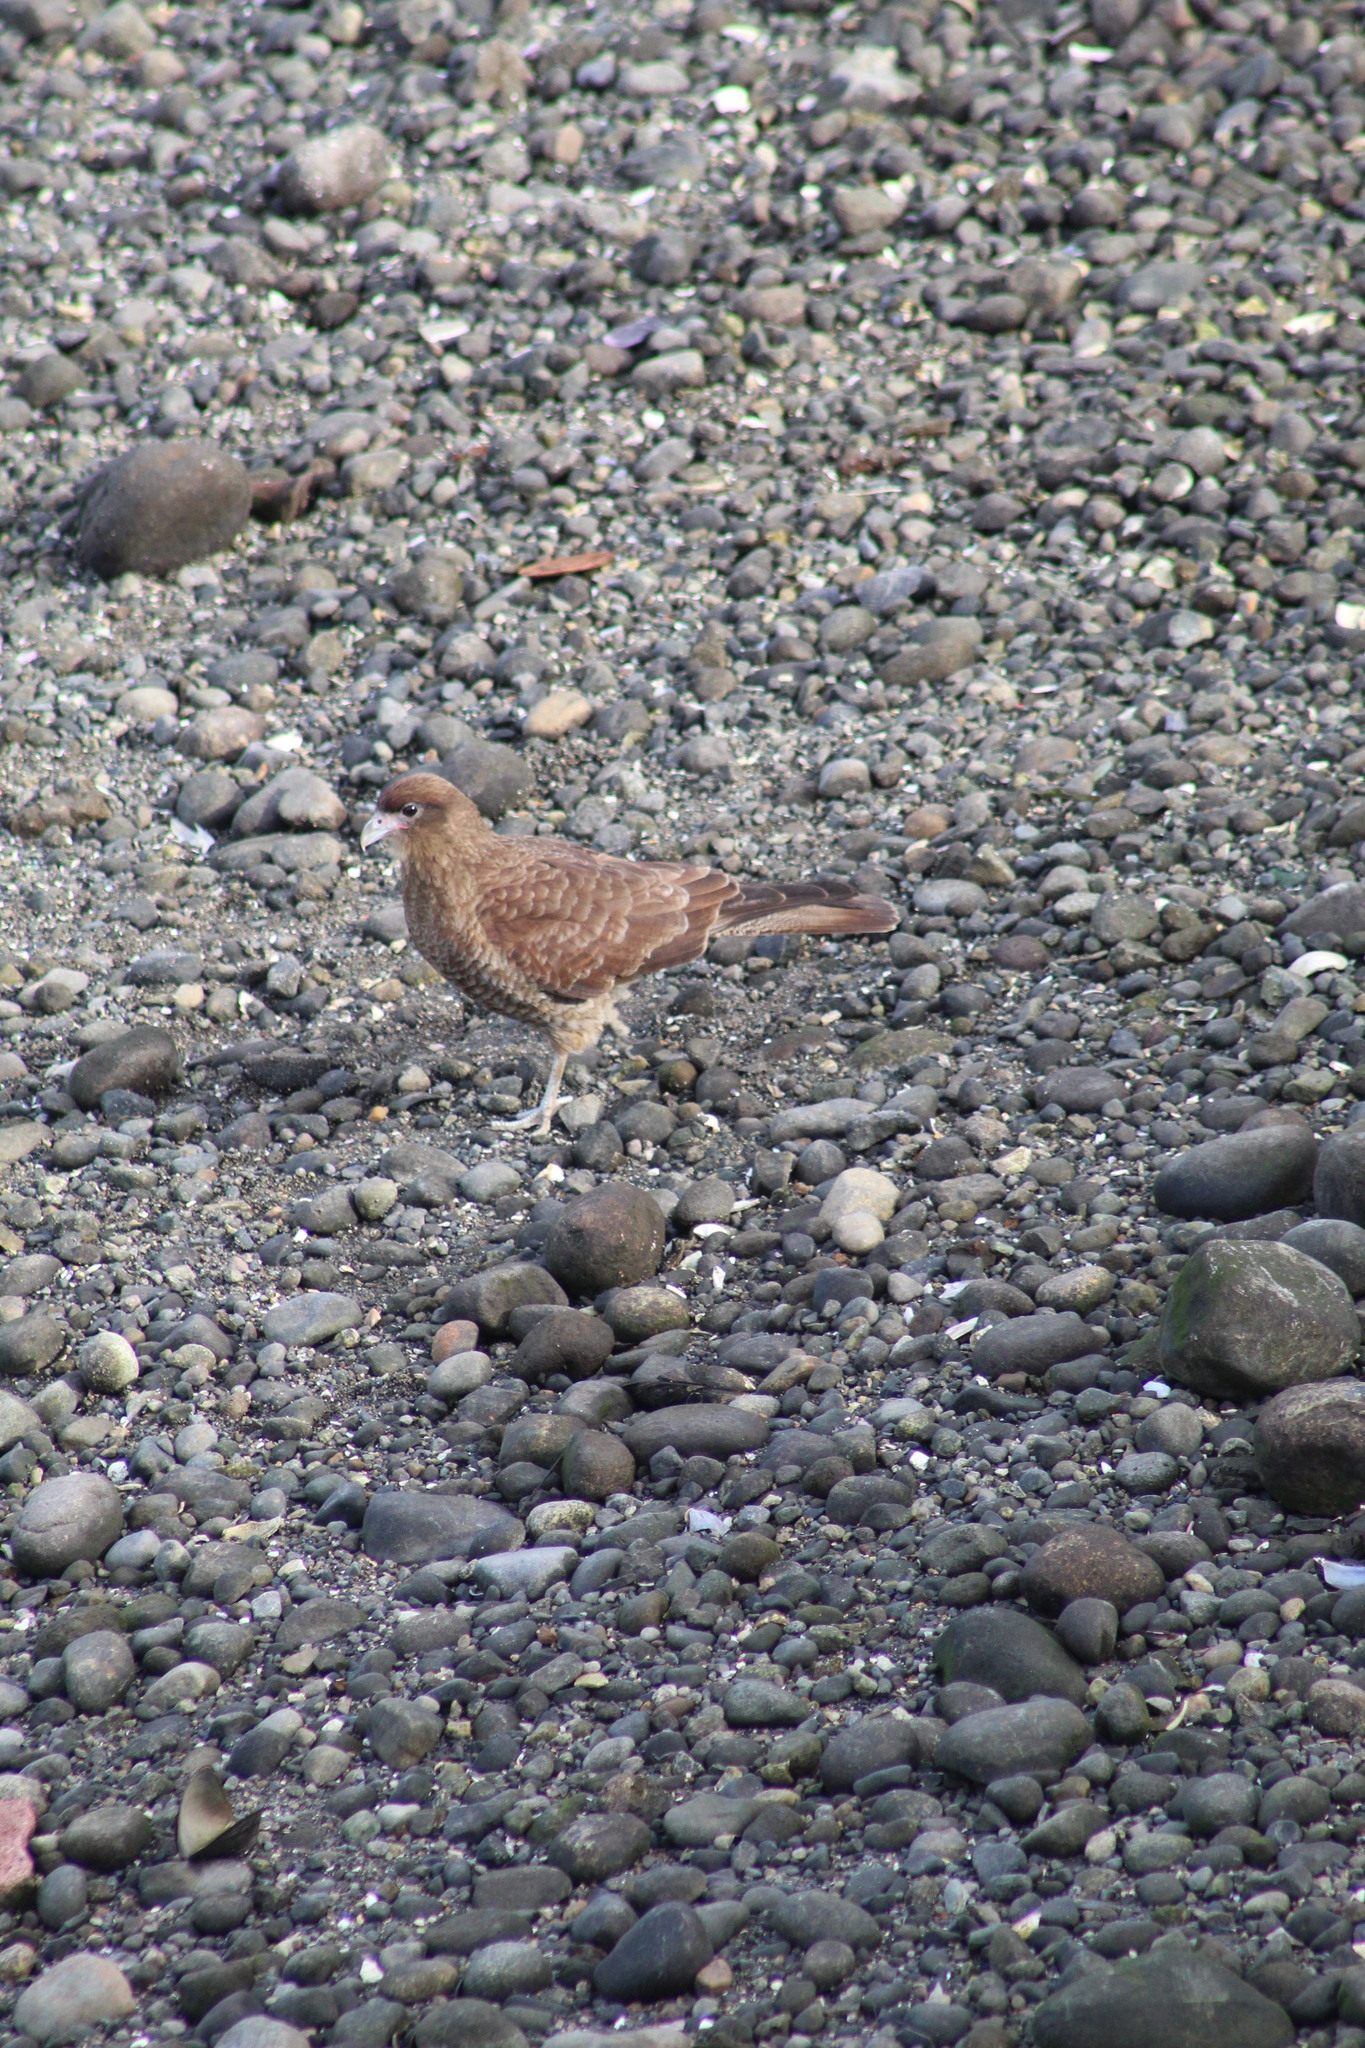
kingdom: Animalia
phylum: Chordata
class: Aves
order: Falconiformes
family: Falconidae
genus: Daptrius
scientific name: Daptrius
